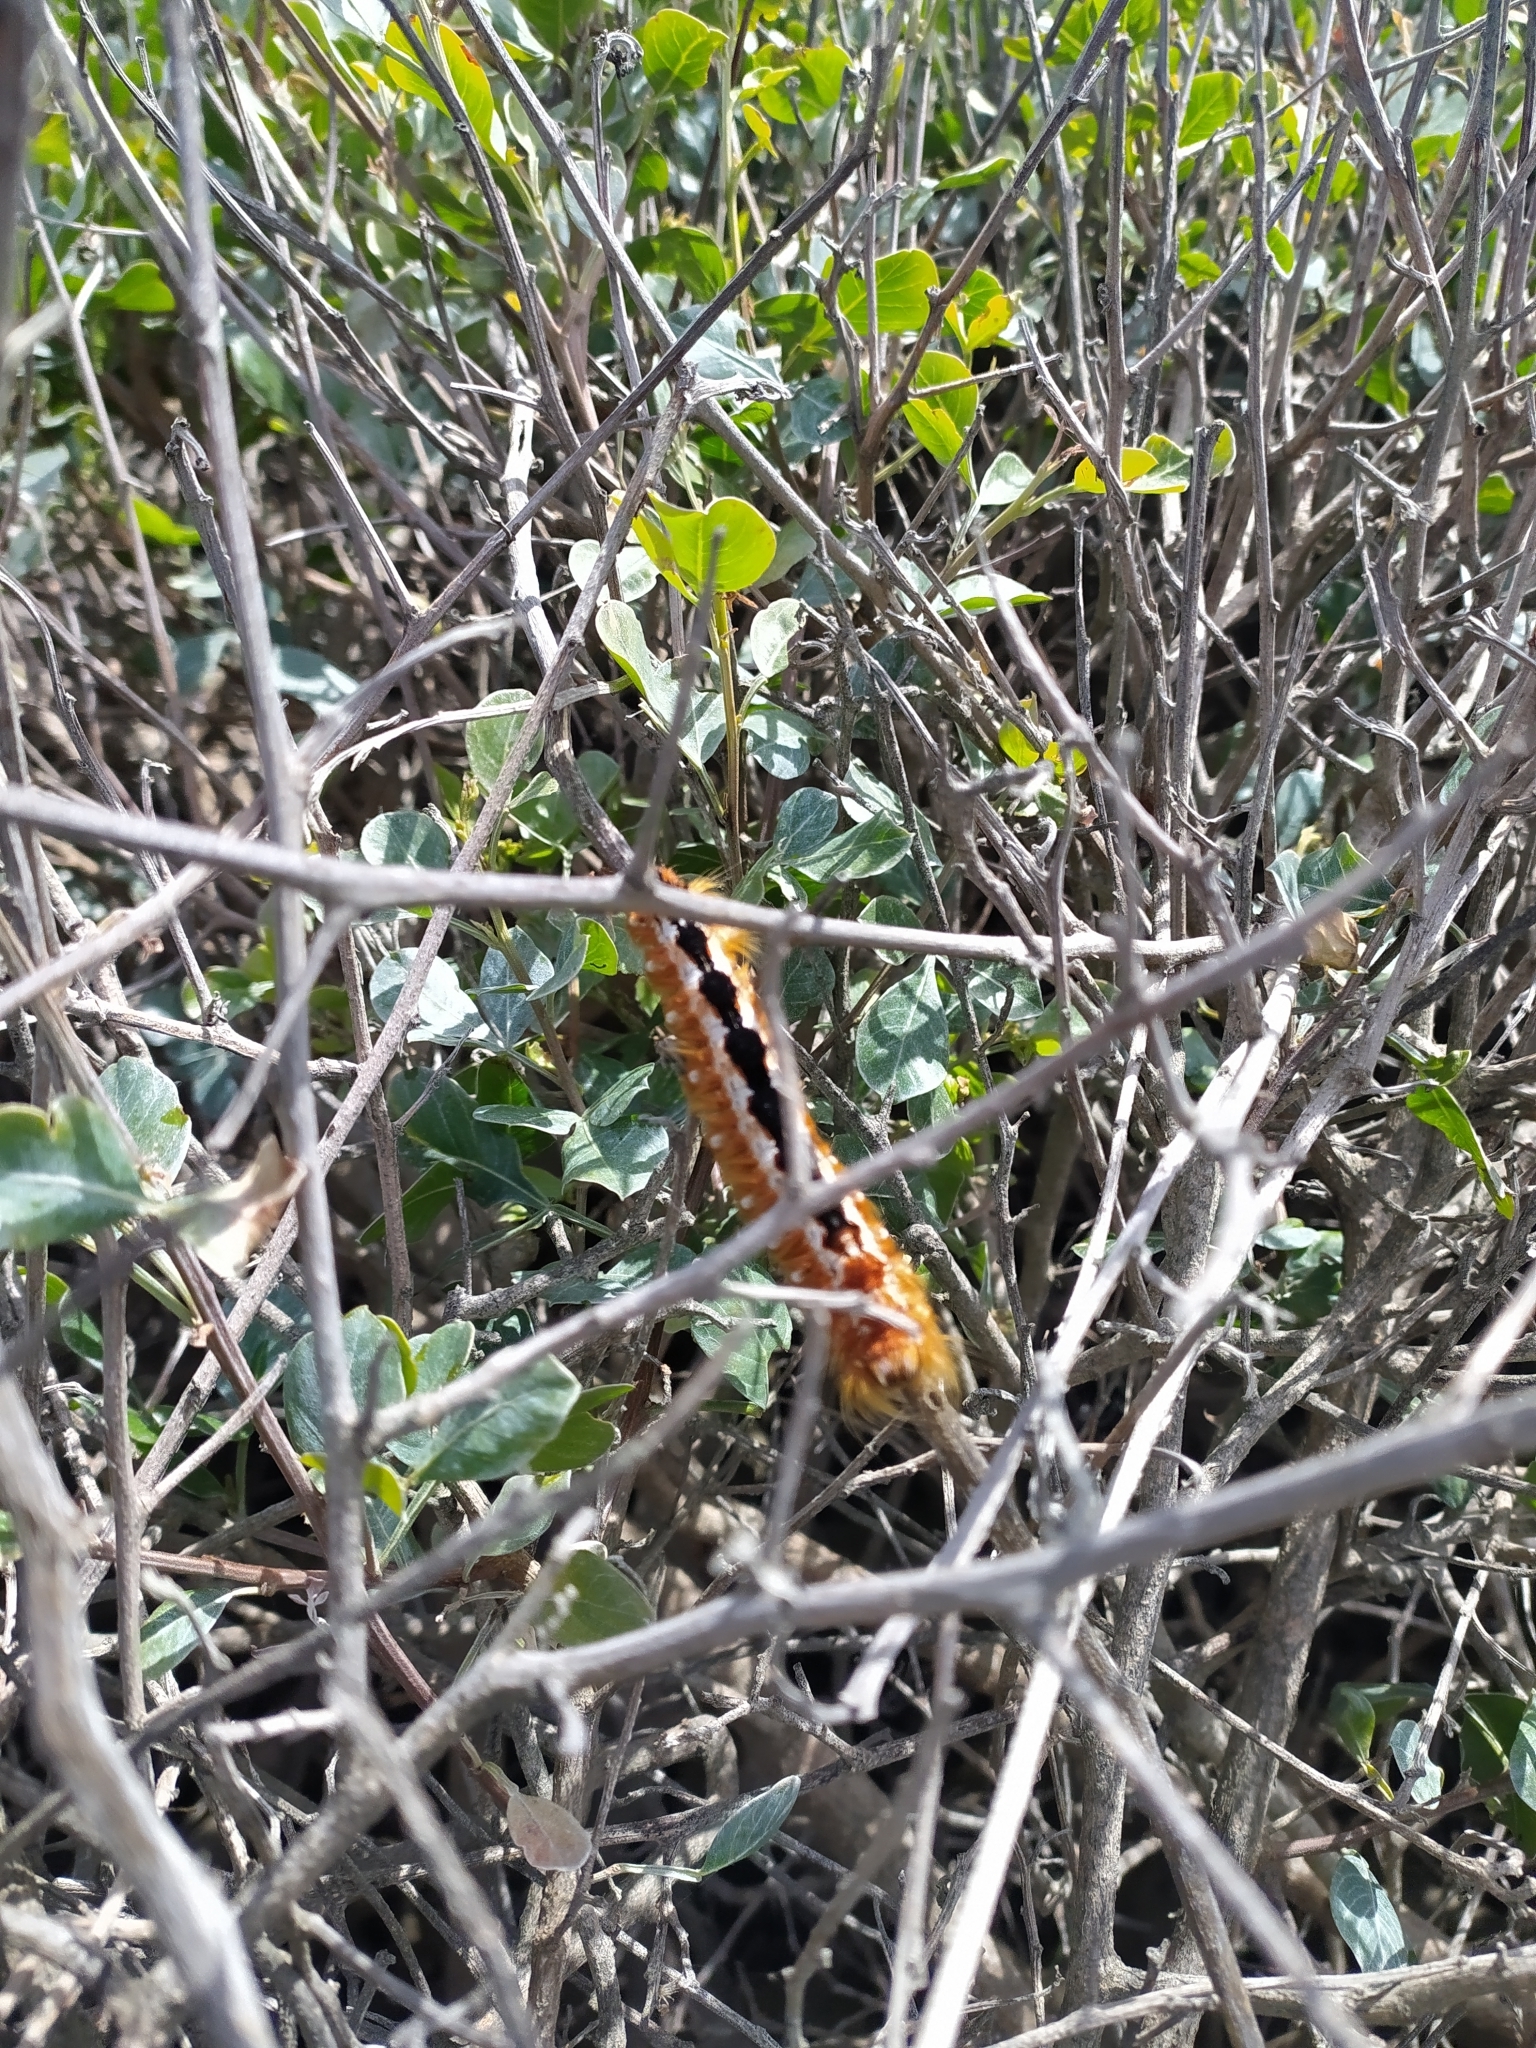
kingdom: Animalia
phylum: Arthropoda
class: Insecta
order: Lepidoptera
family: Lasiocampidae
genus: Eutricha
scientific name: Eutricha capensis
